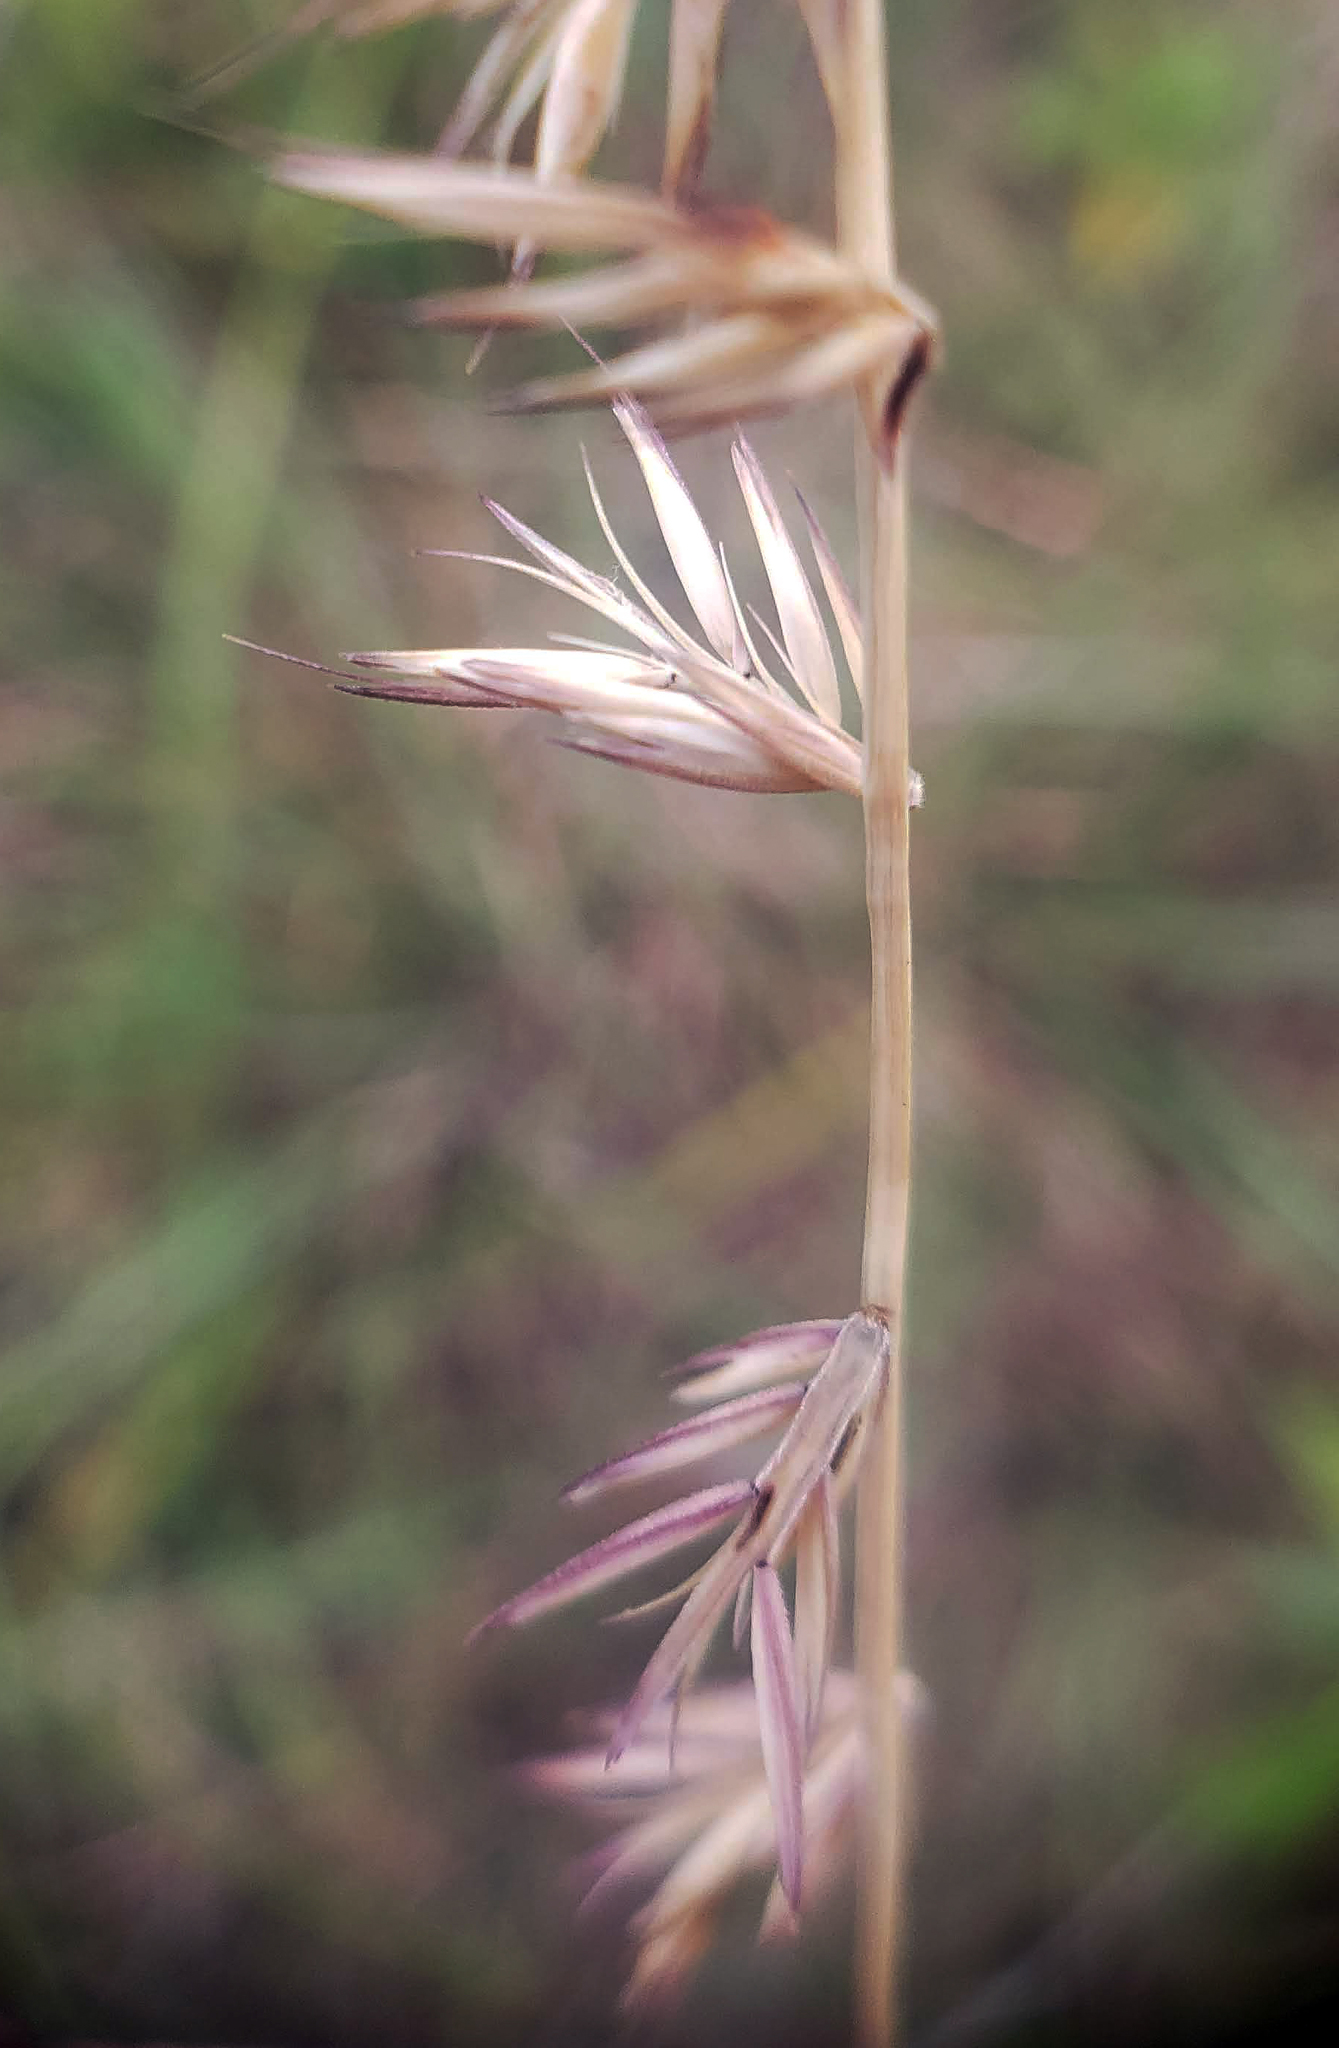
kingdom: Plantae
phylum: Tracheophyta
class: Liliopsida
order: Poales
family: Poaceae
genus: Bouteloua
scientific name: Bouteloua curtipendula
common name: Side-oats grama
